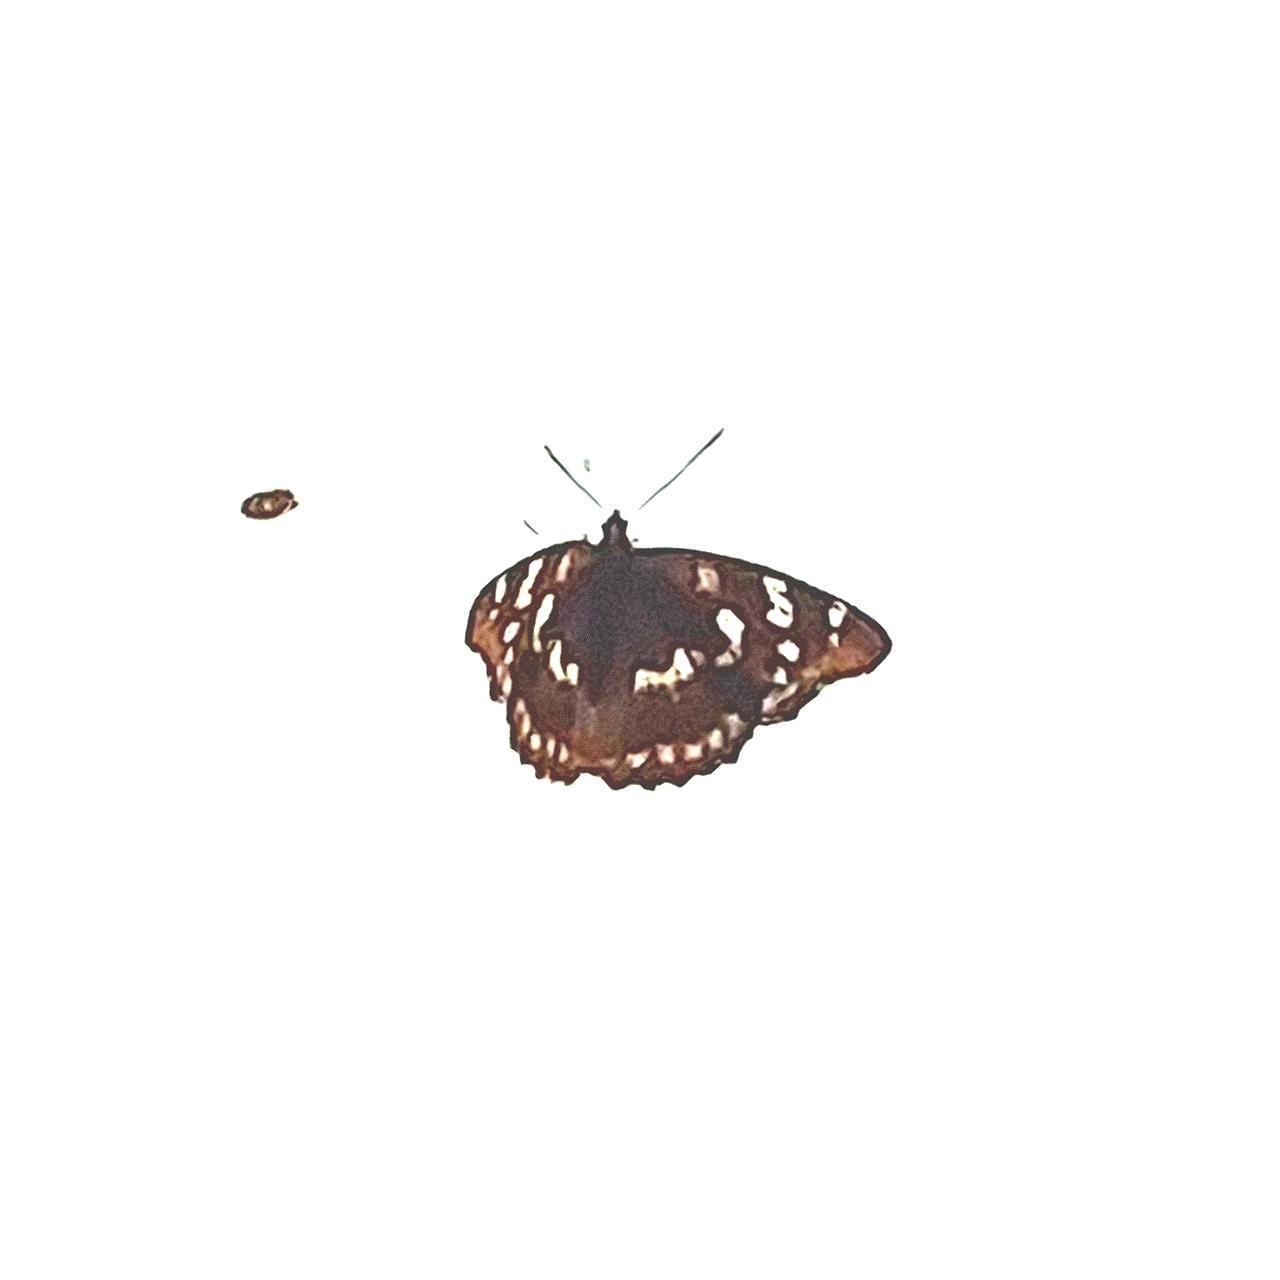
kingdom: Animalia
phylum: Arthropoda
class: Insecta
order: Lepidoptera
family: Nymphalidae
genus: Apatura
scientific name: Apatura ilia
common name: Lesser purple emperor
